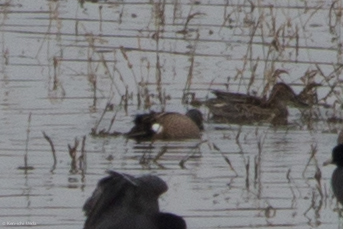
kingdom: Animalia
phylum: Chordata
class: Aves
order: Anseriformes
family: Anatidae
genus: Spatula
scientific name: Spatula discors
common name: Blue-winged teal
